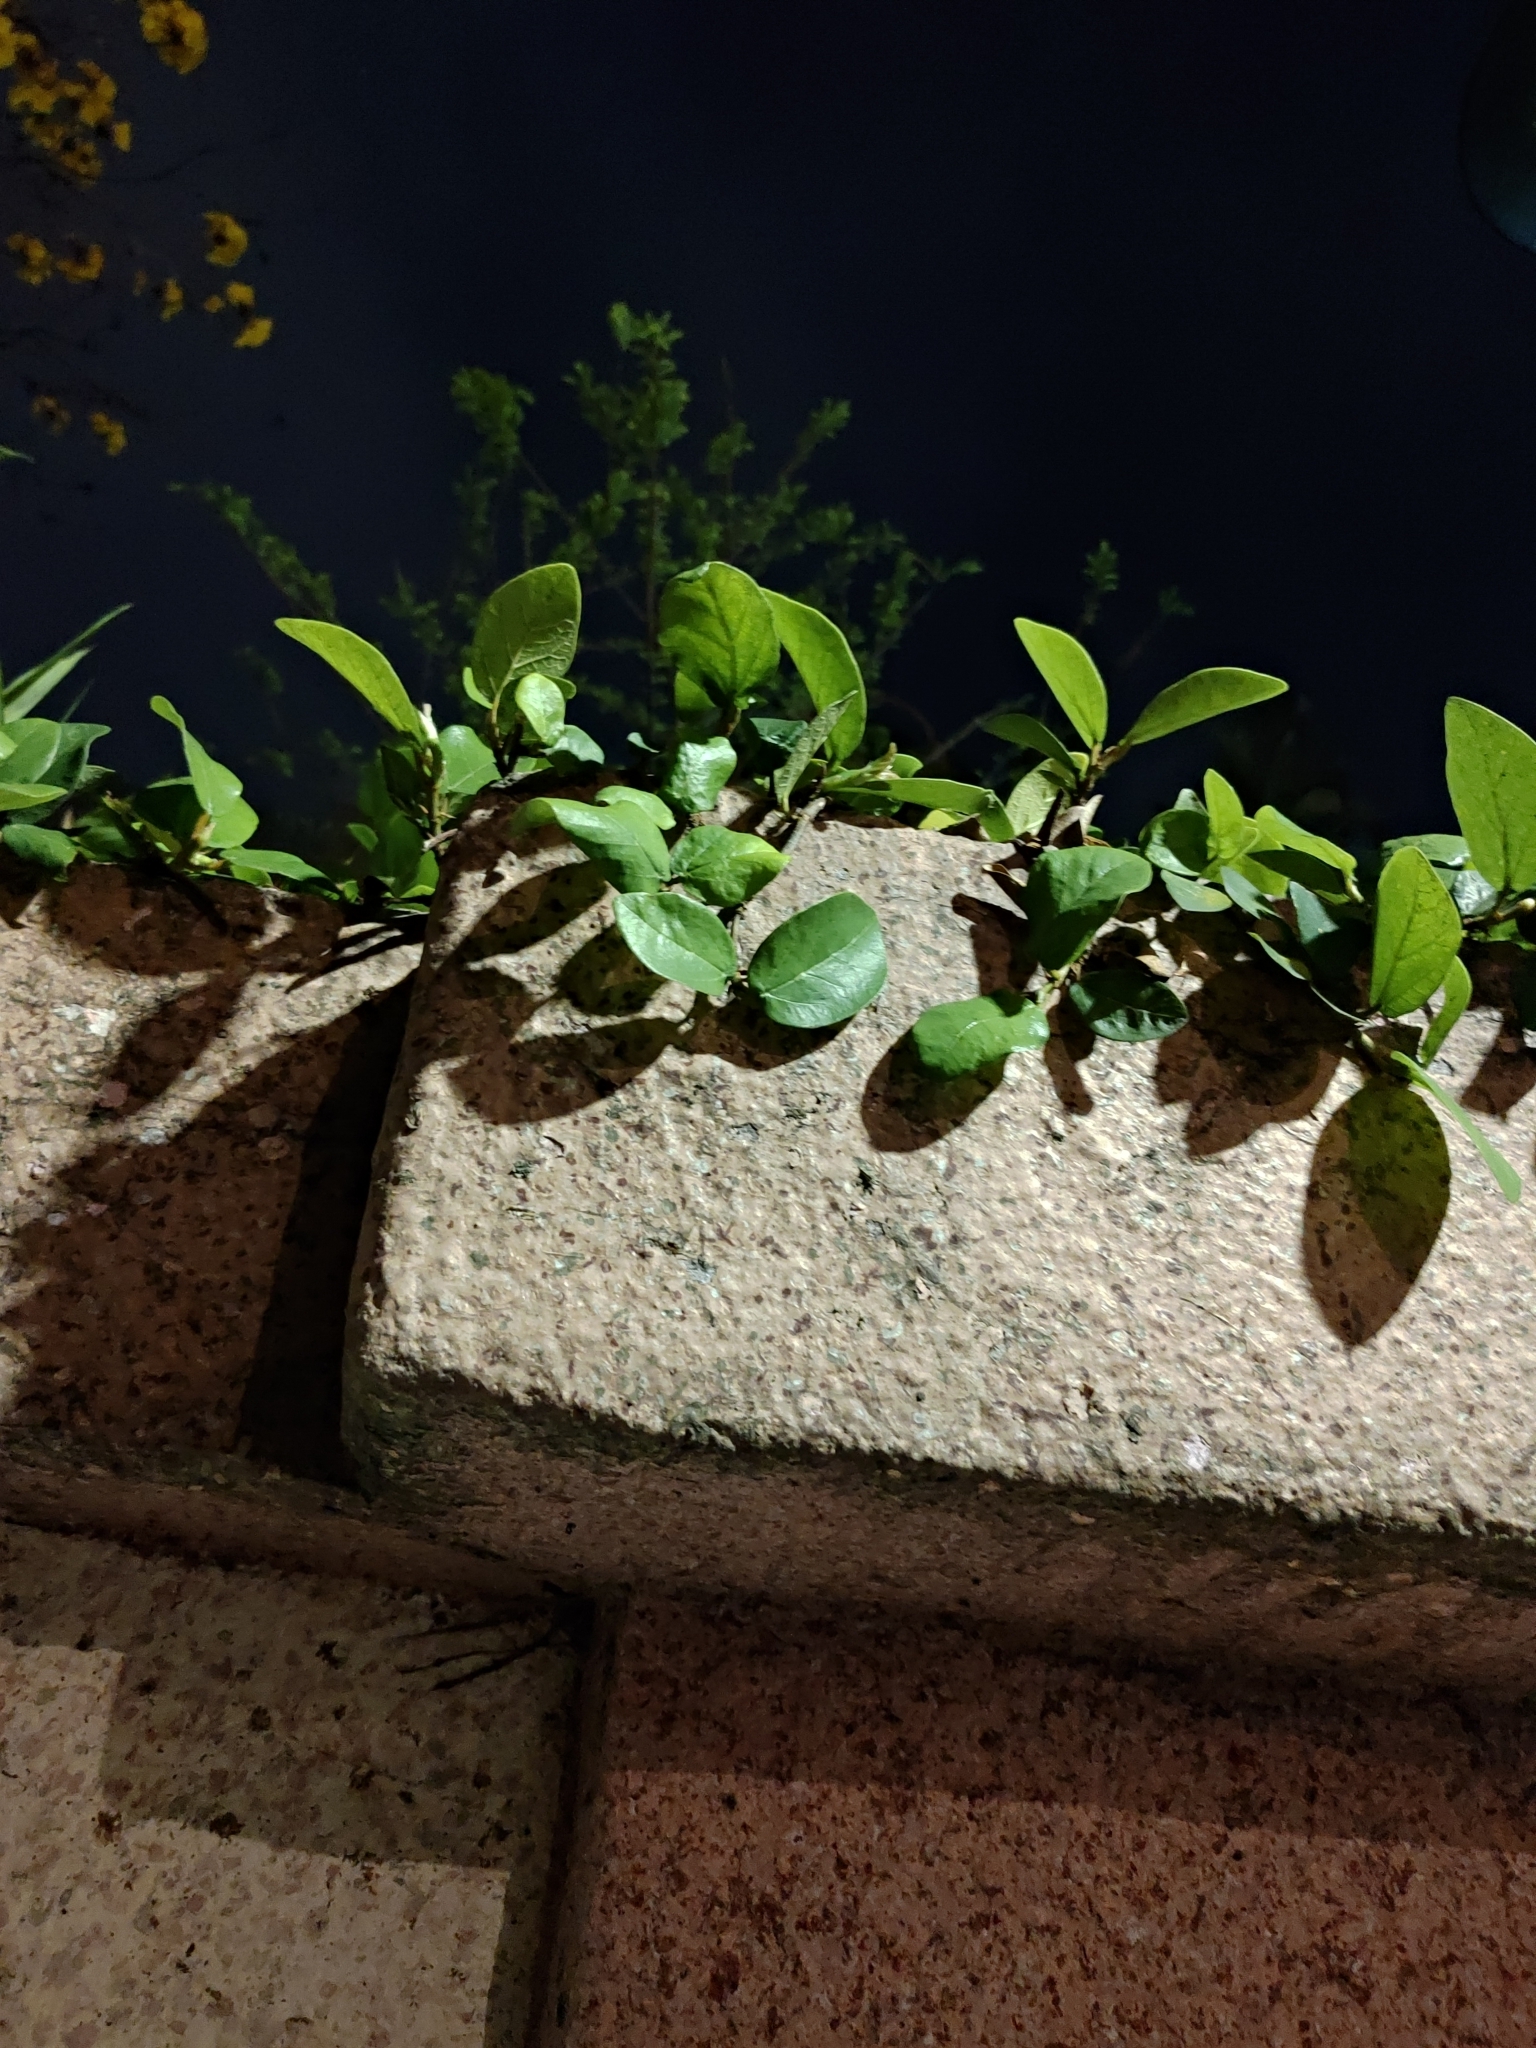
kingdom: Plantae
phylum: Tracheophyta
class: Magnoliopsida
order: Rosales
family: Moraceae
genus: Ficus
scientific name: Ficus pumila
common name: Climbingfig
